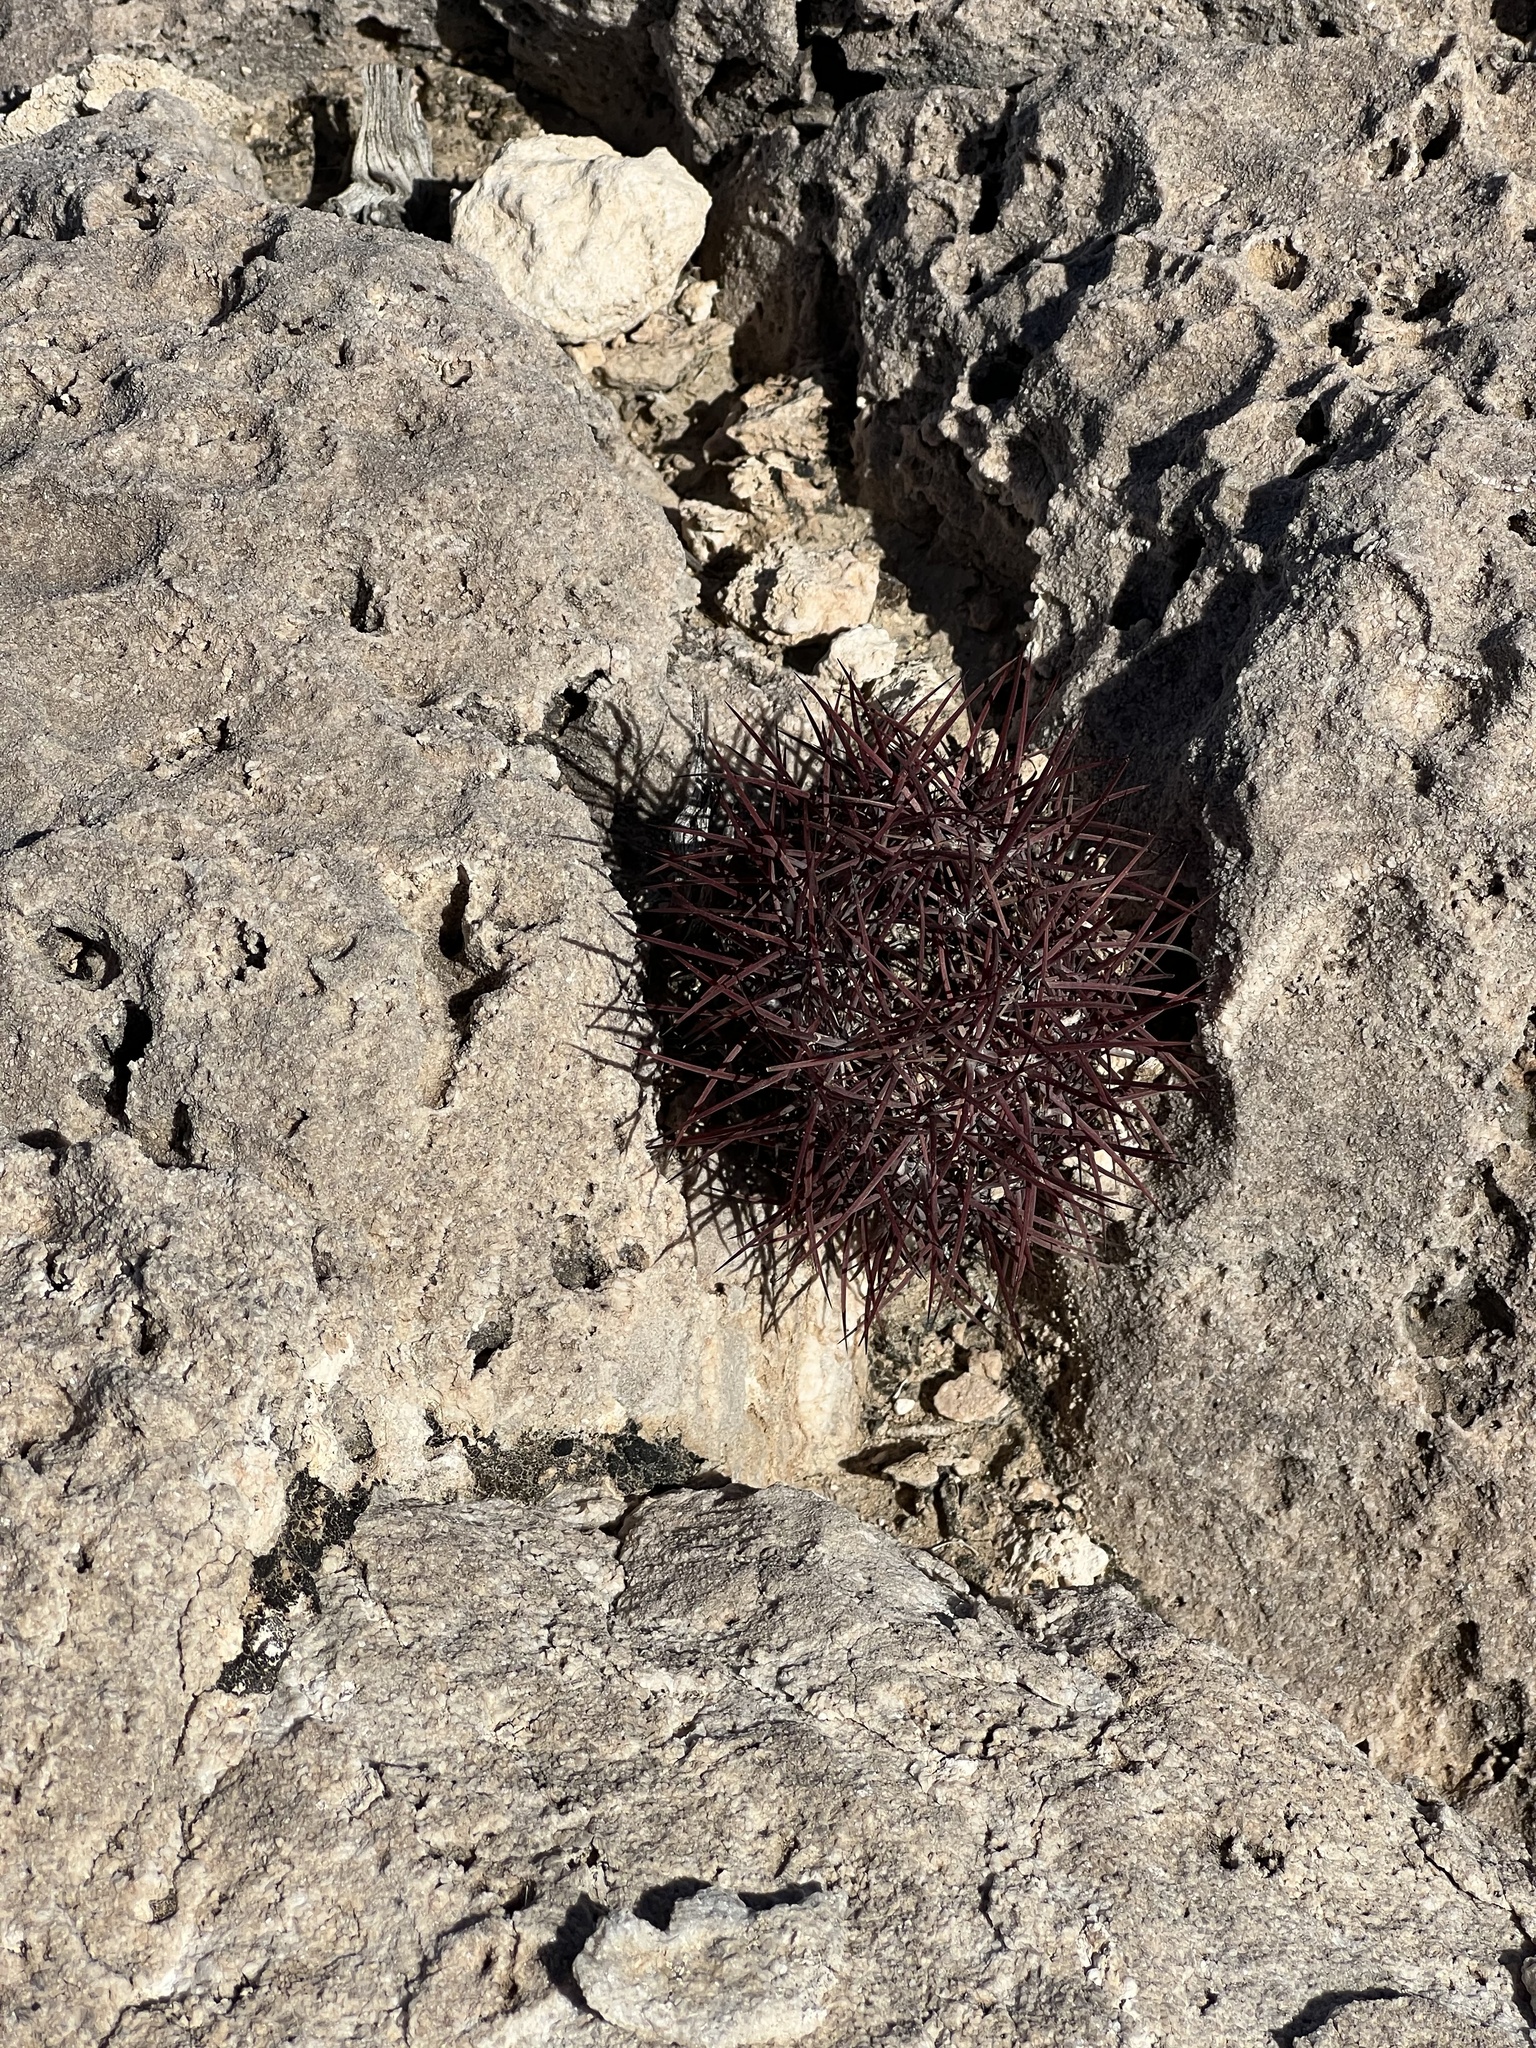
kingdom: Plantae
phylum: Tracheophyta
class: Magnoliopsida
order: Caryophyllales
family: Cactaceae
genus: Sclerocactus
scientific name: Sclerocactus johnsonii
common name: Eight-spine fishhook cactus
